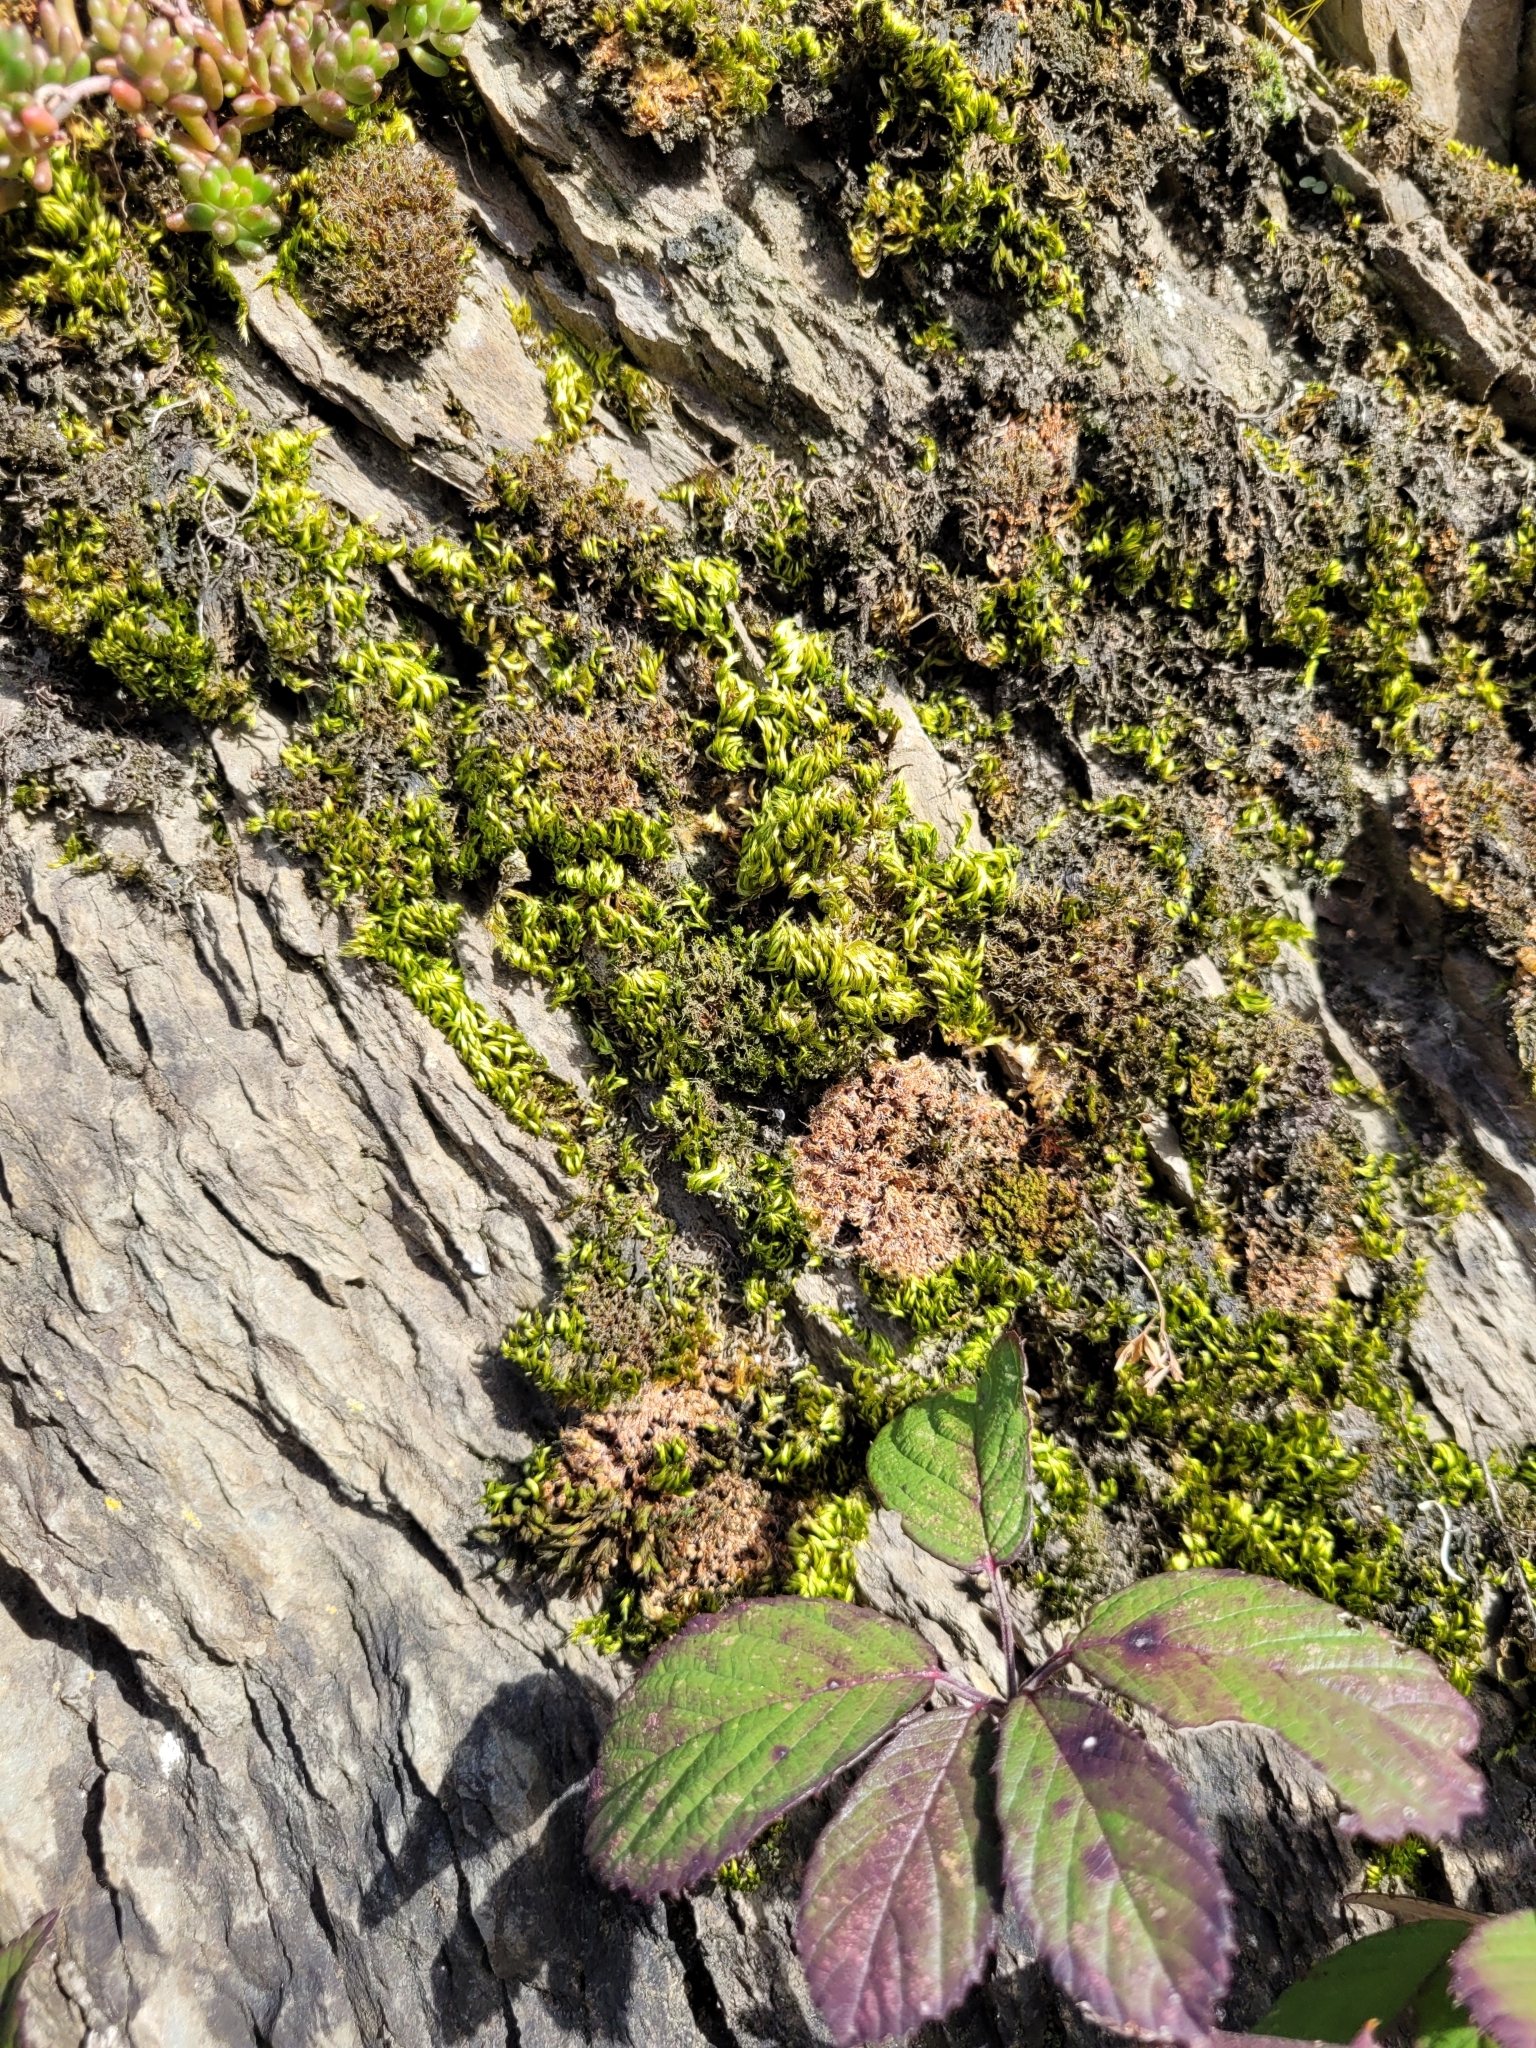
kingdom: Plantae
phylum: Bryophyta
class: Bryopsida
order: Hypnales
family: Brachytheciaceae
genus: Homalothecium
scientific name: Homalothecium sericeum
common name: Silky wall feather-moss
